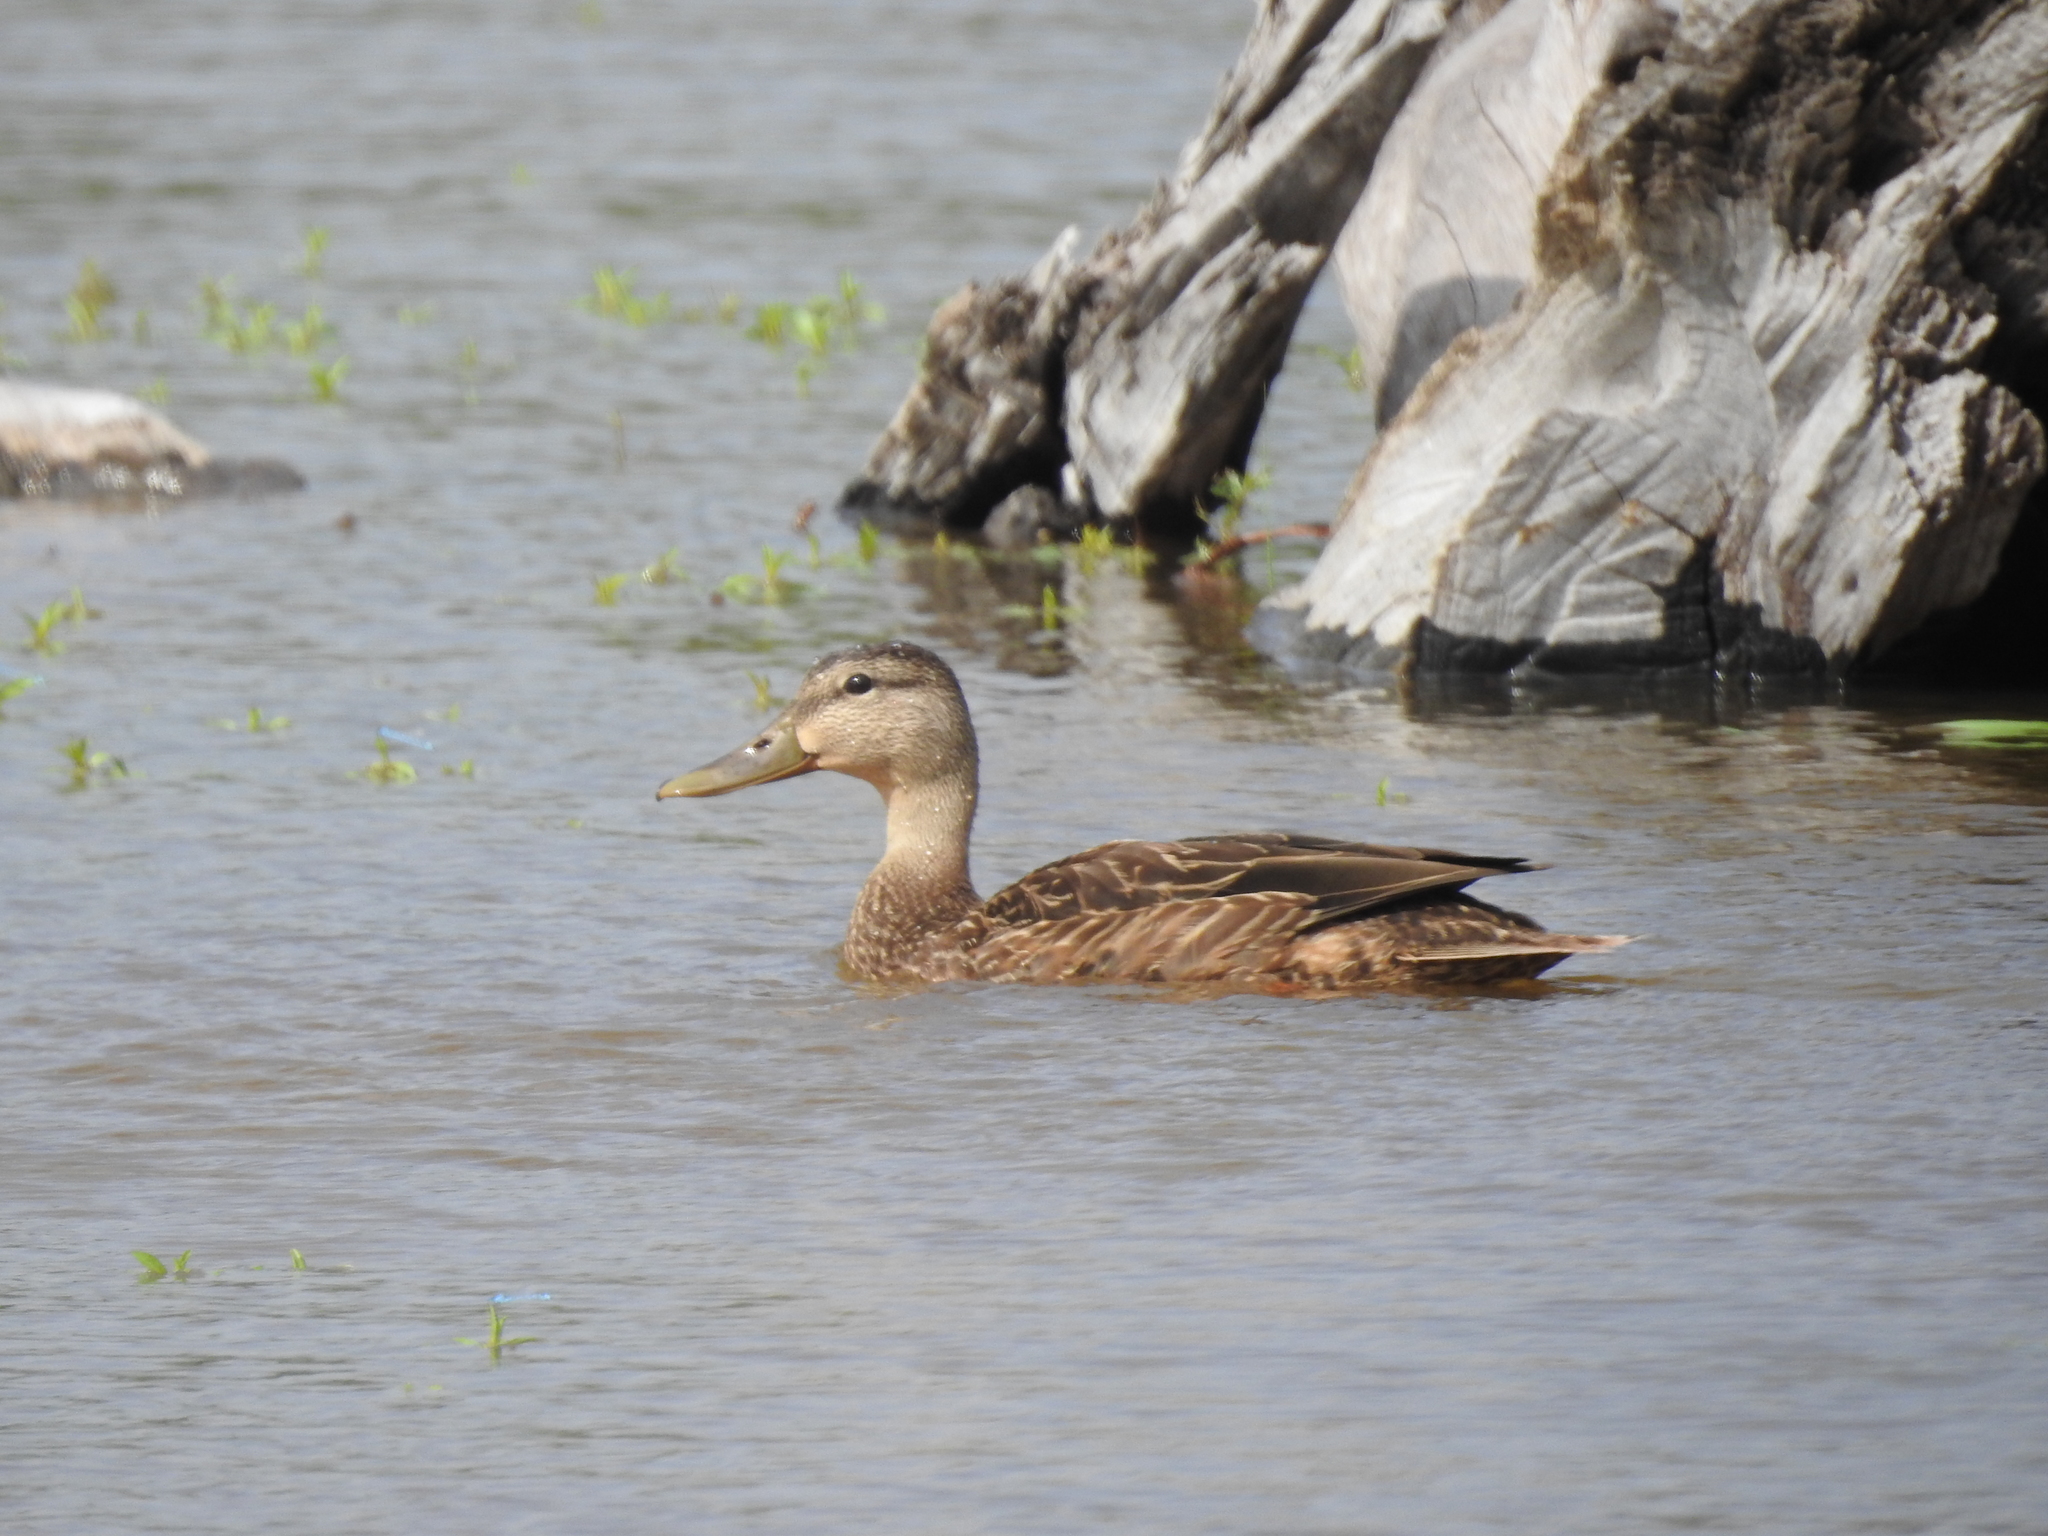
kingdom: Animalia
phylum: Chordata
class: Aves
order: Anseriformes
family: Anatidae
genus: Anas
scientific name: Anas fulvigula
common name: Mottled duck
